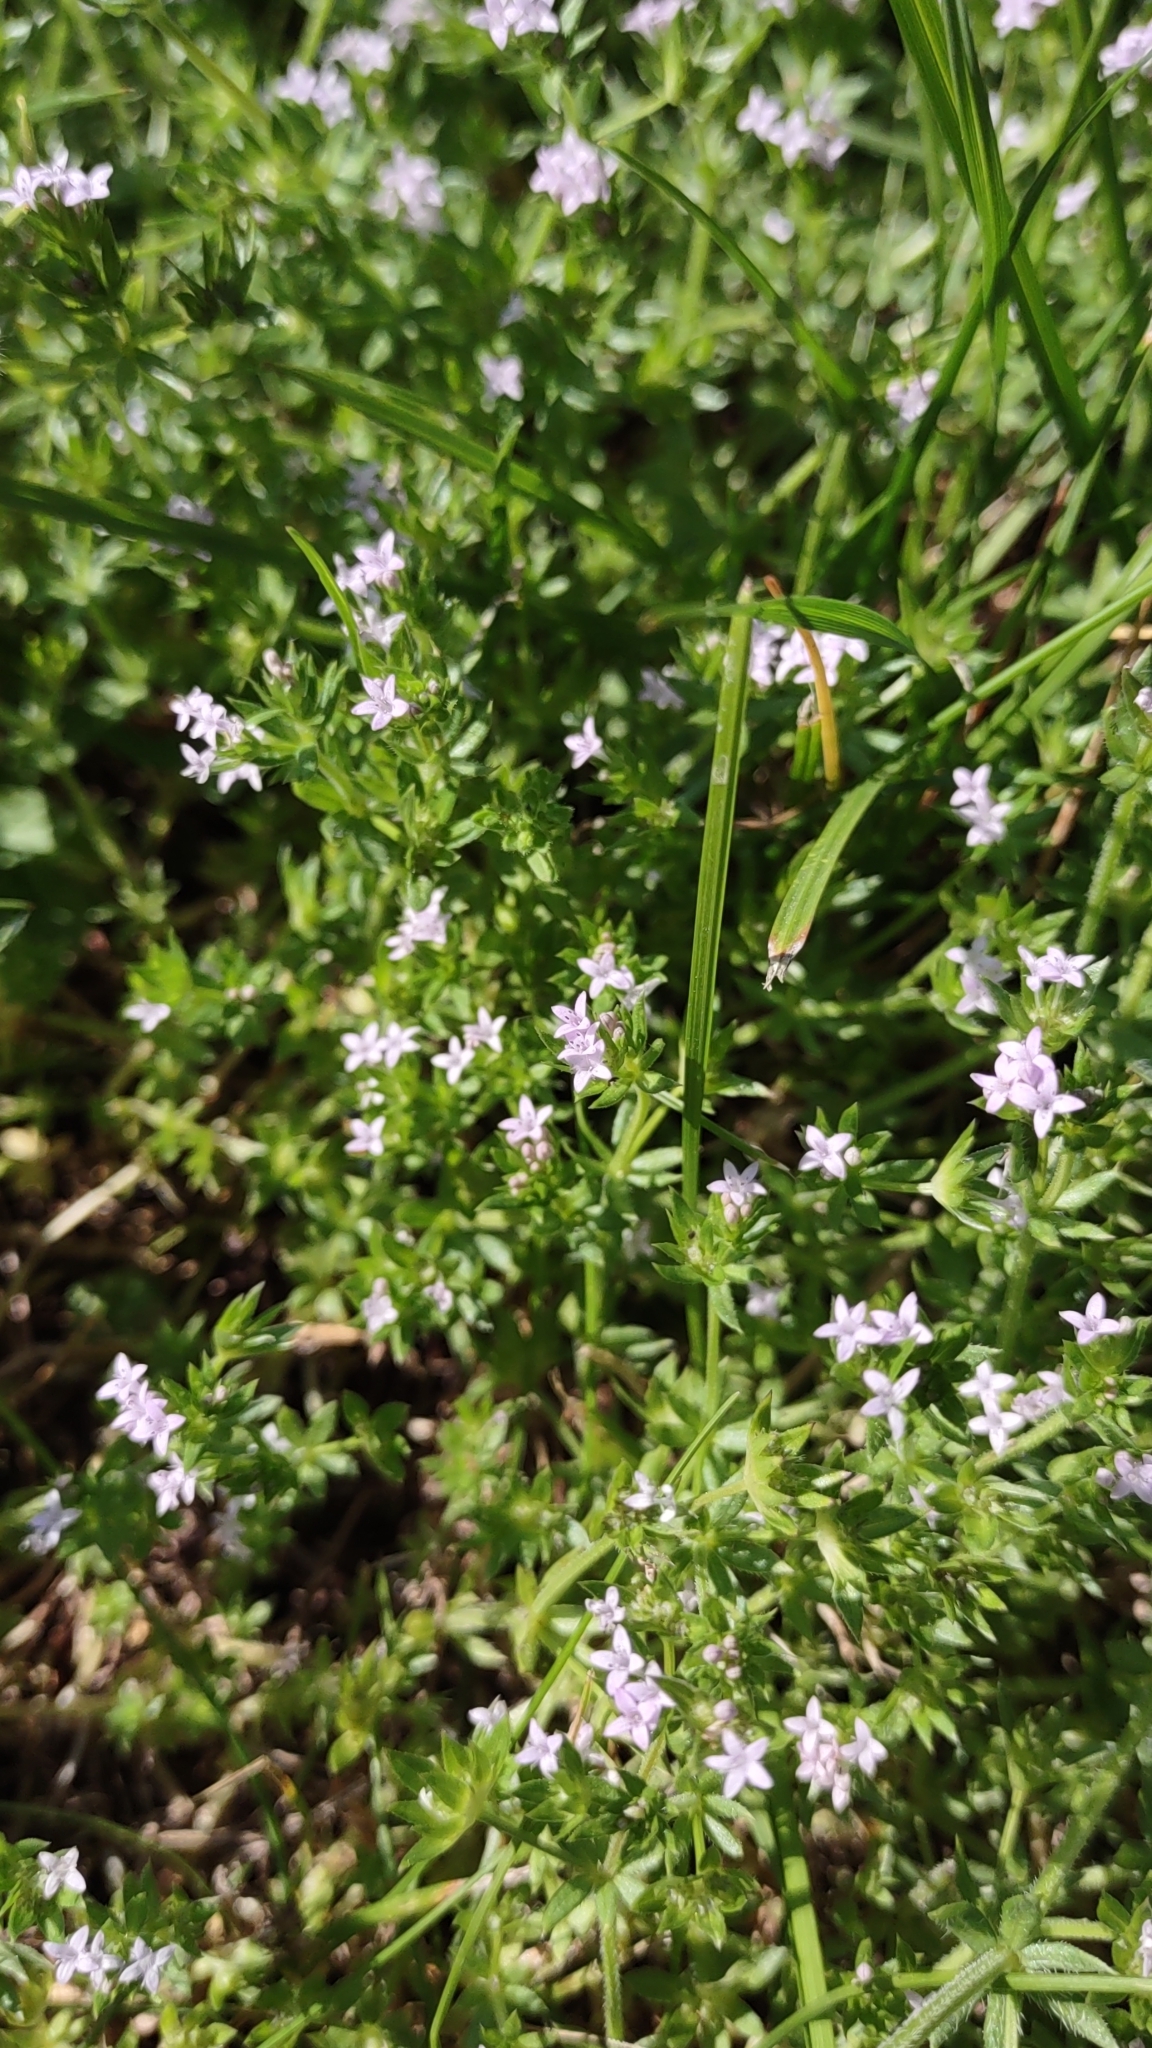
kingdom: Plantae
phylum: Tracheophyta
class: Magnoliopsida
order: Gentianales
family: Rubiaceae
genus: Sherardia
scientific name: Sherardia arvensis
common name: Field madder
